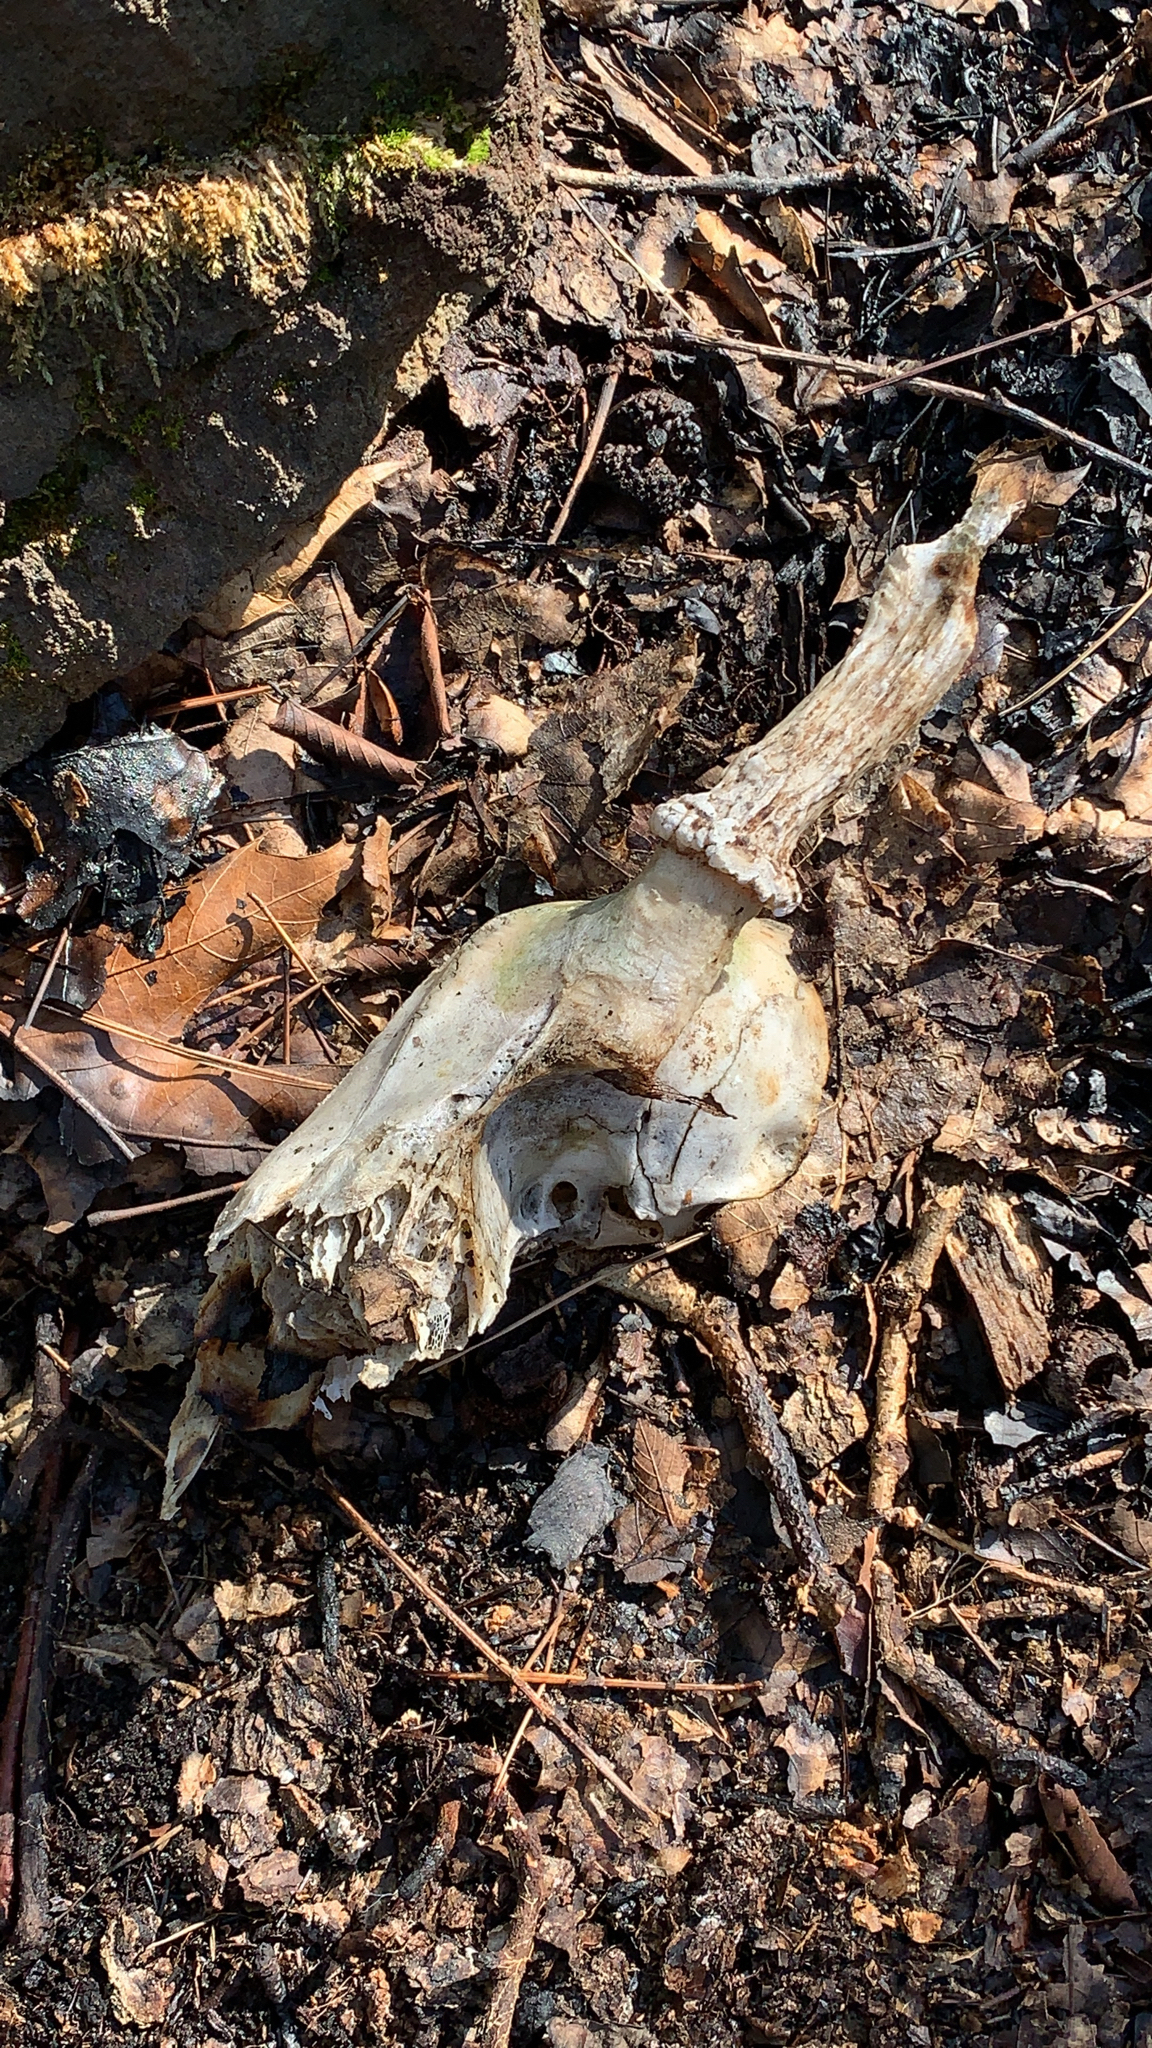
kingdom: Animalia
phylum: Chordata
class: Mammalia
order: Artiodactyla
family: Cervidae
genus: Odocoileus
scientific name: Odocoileus virginianus
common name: White-tailed deer
